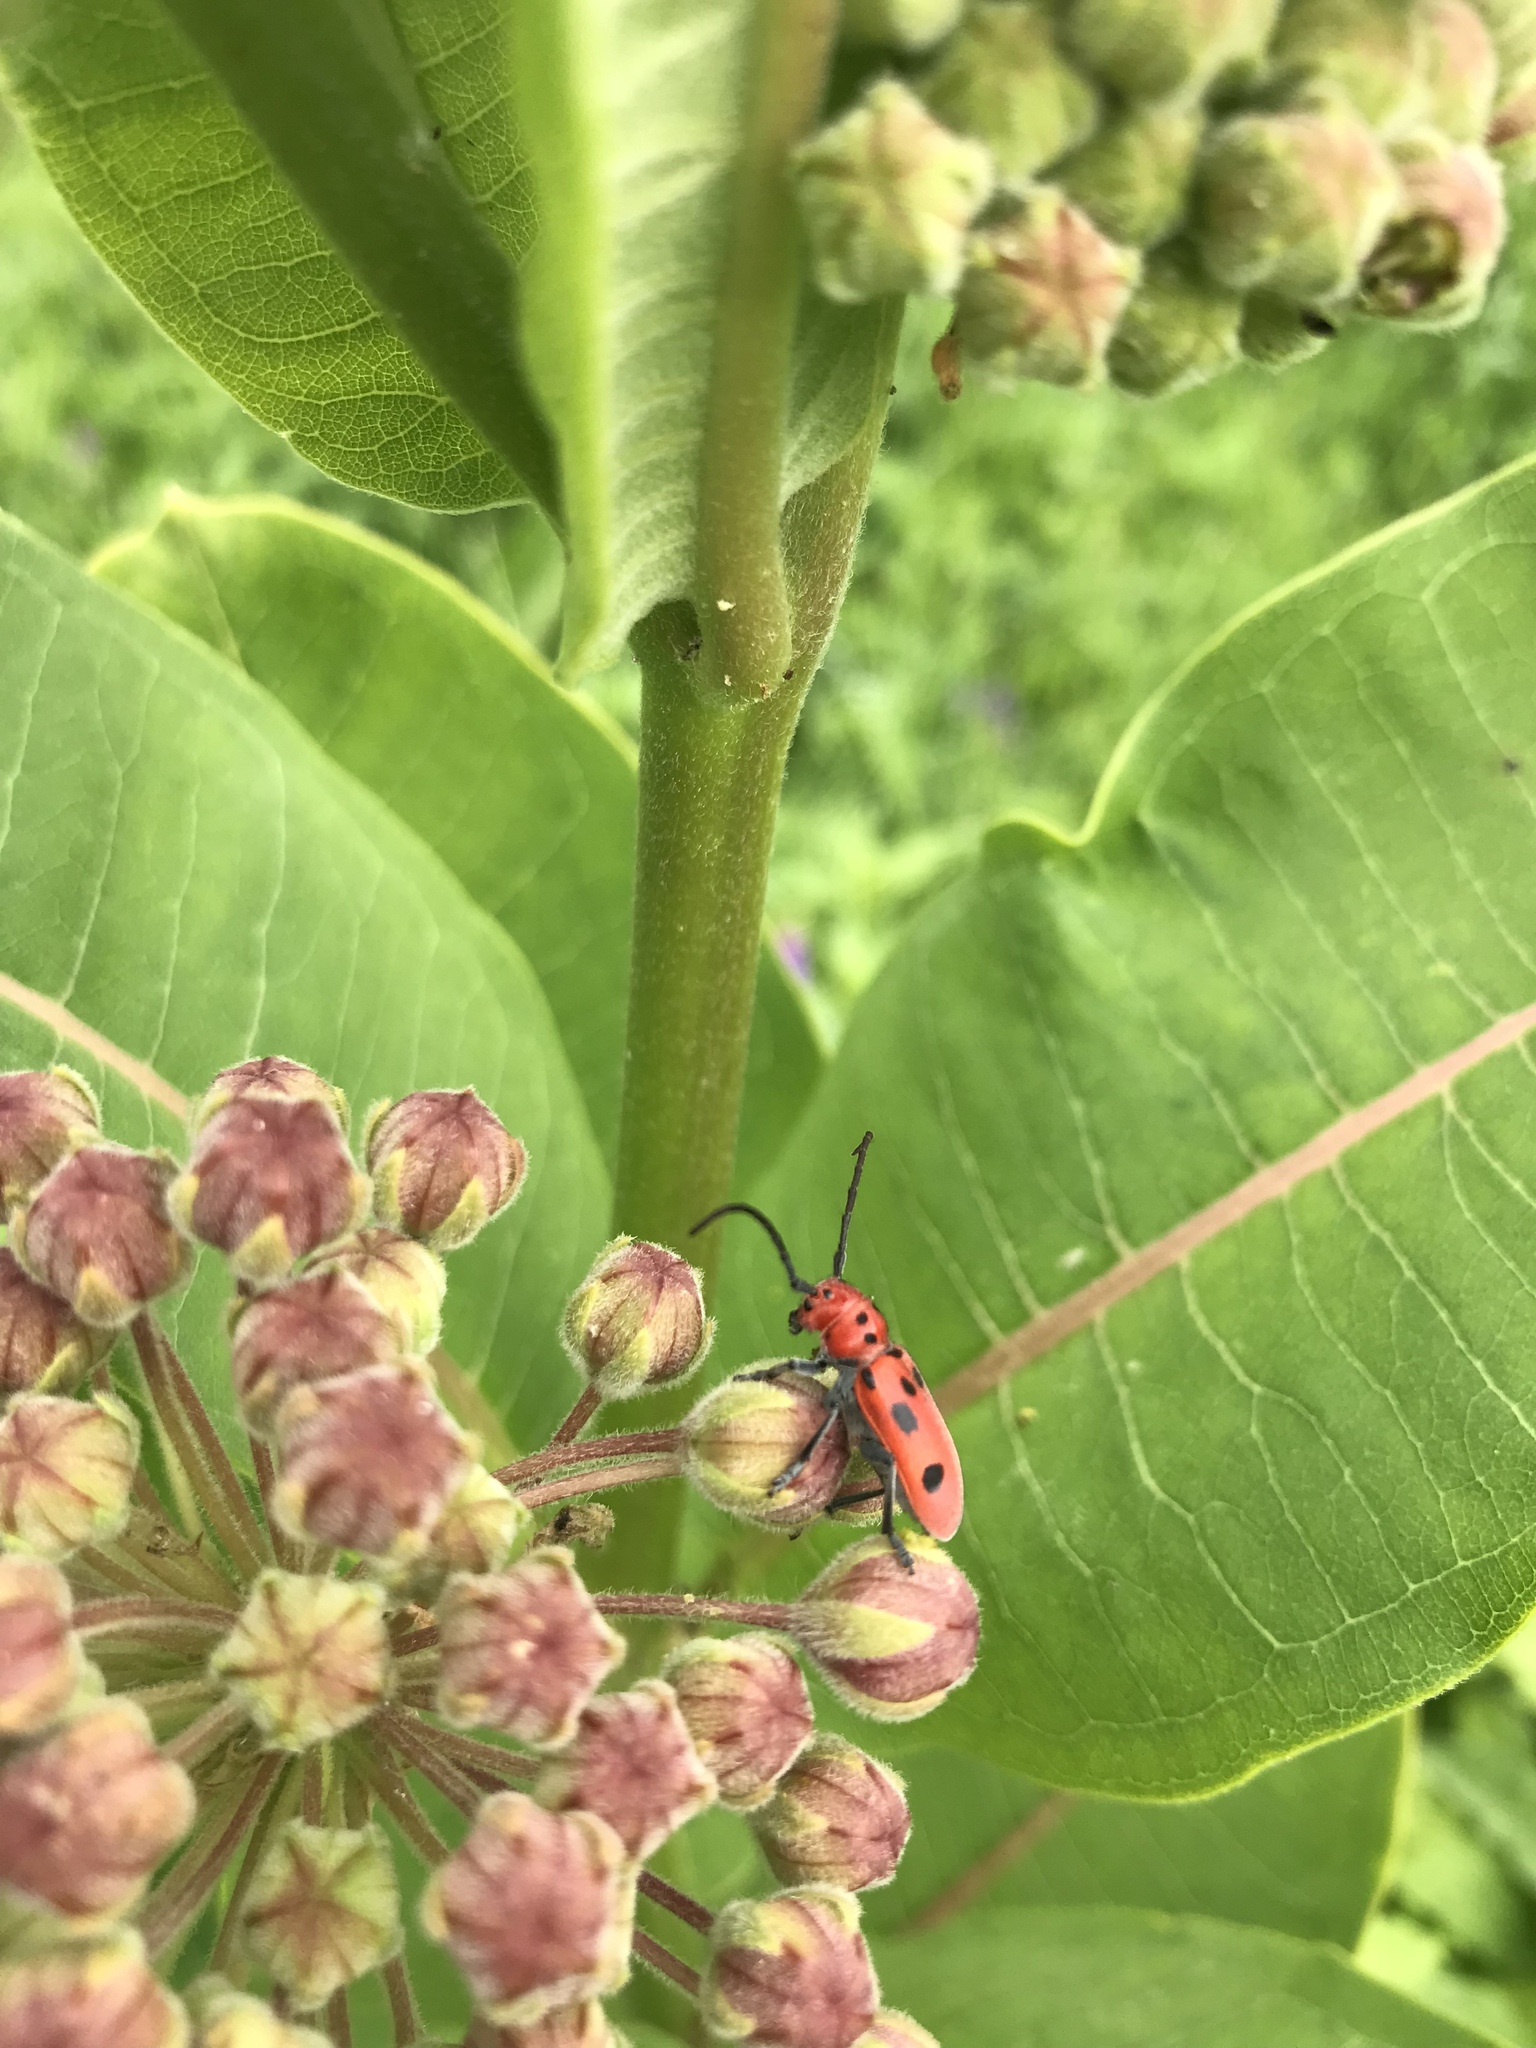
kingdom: Animalia
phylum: Arthropoda
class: Insecta
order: Coleoptera
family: Cerambycidae
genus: Tetraopes
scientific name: Tetraopes tetrophthalmus
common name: Red milkweed beetle
